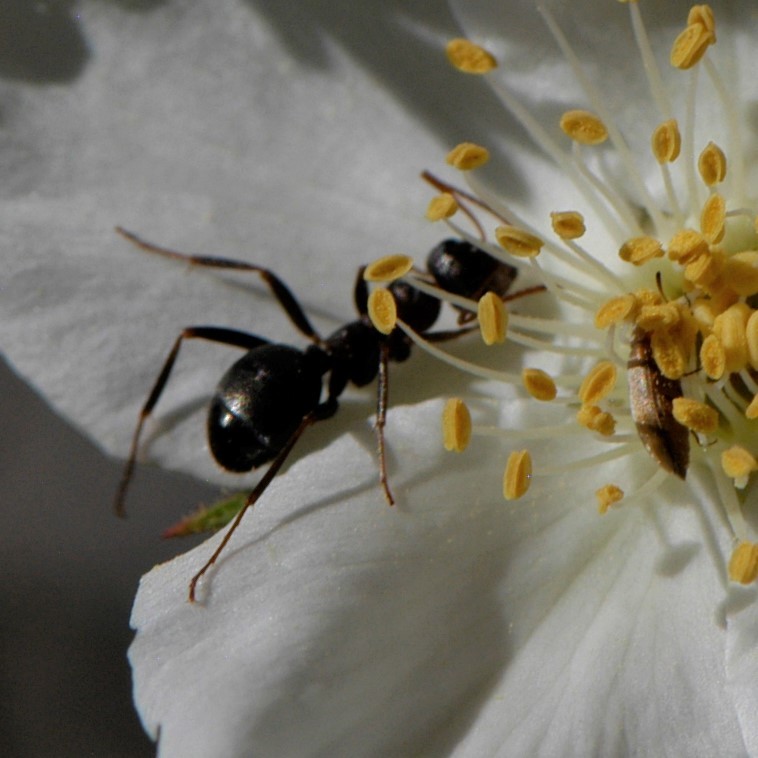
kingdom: Animalia
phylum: Arthropoda
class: Insecta
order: Hymenoptera
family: Formicidae
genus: Formica
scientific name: Formica
